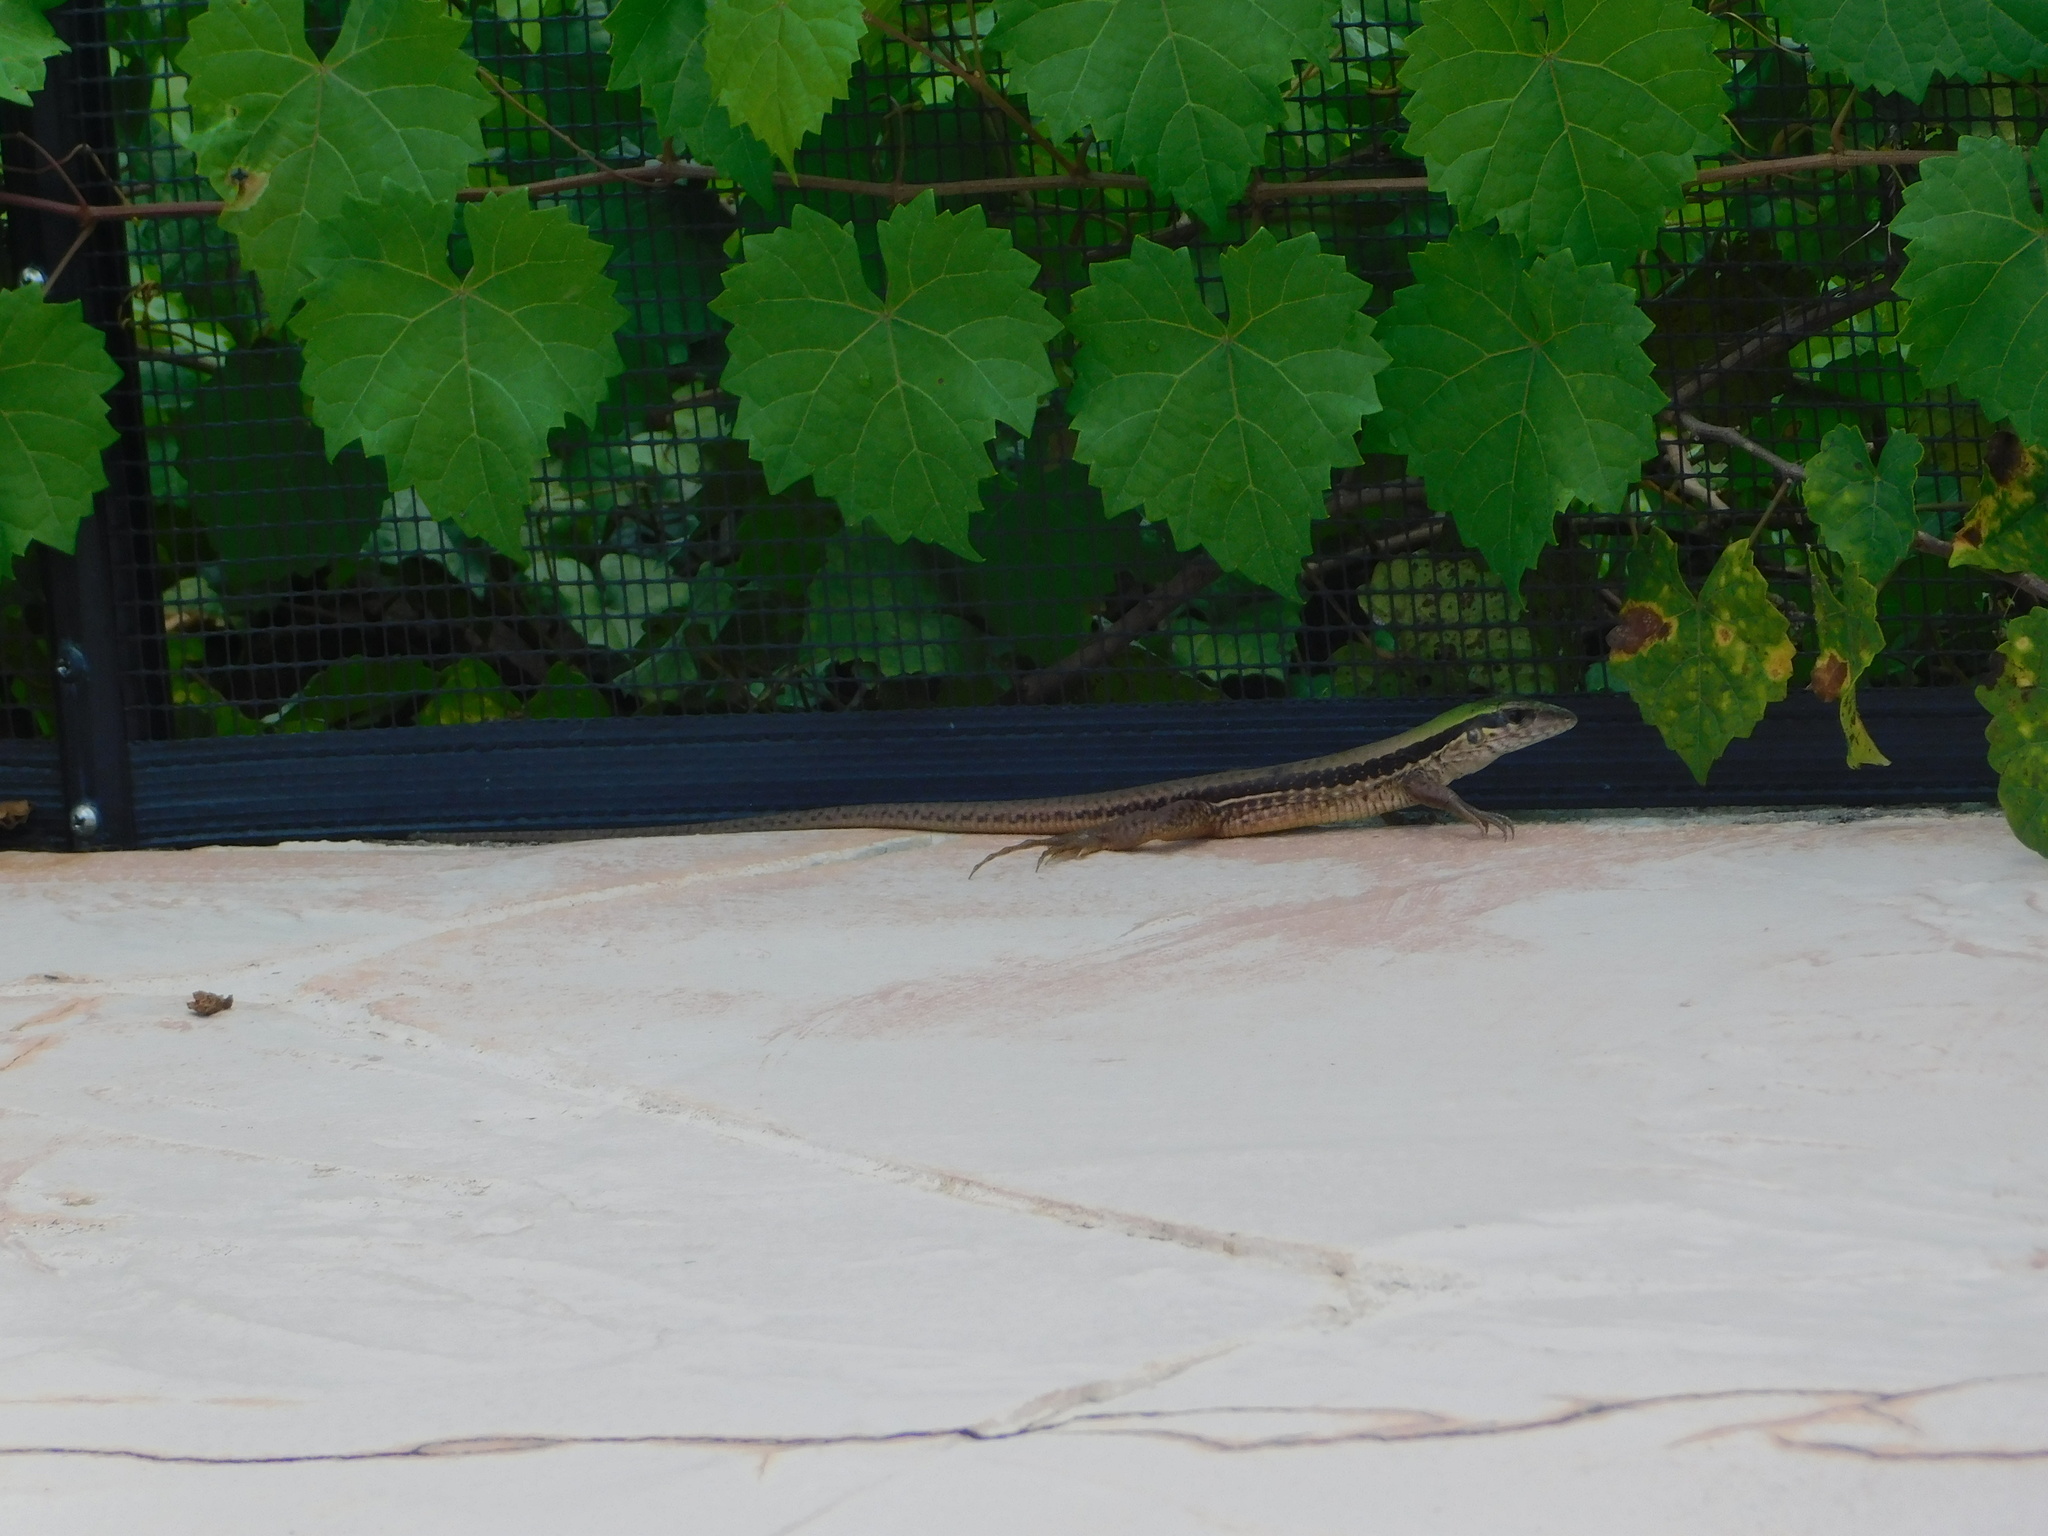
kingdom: Animalia
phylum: Chordata
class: Squamata
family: Teiidae
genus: Ameiva
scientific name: Ameiva ameiva
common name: Giant ameiva
